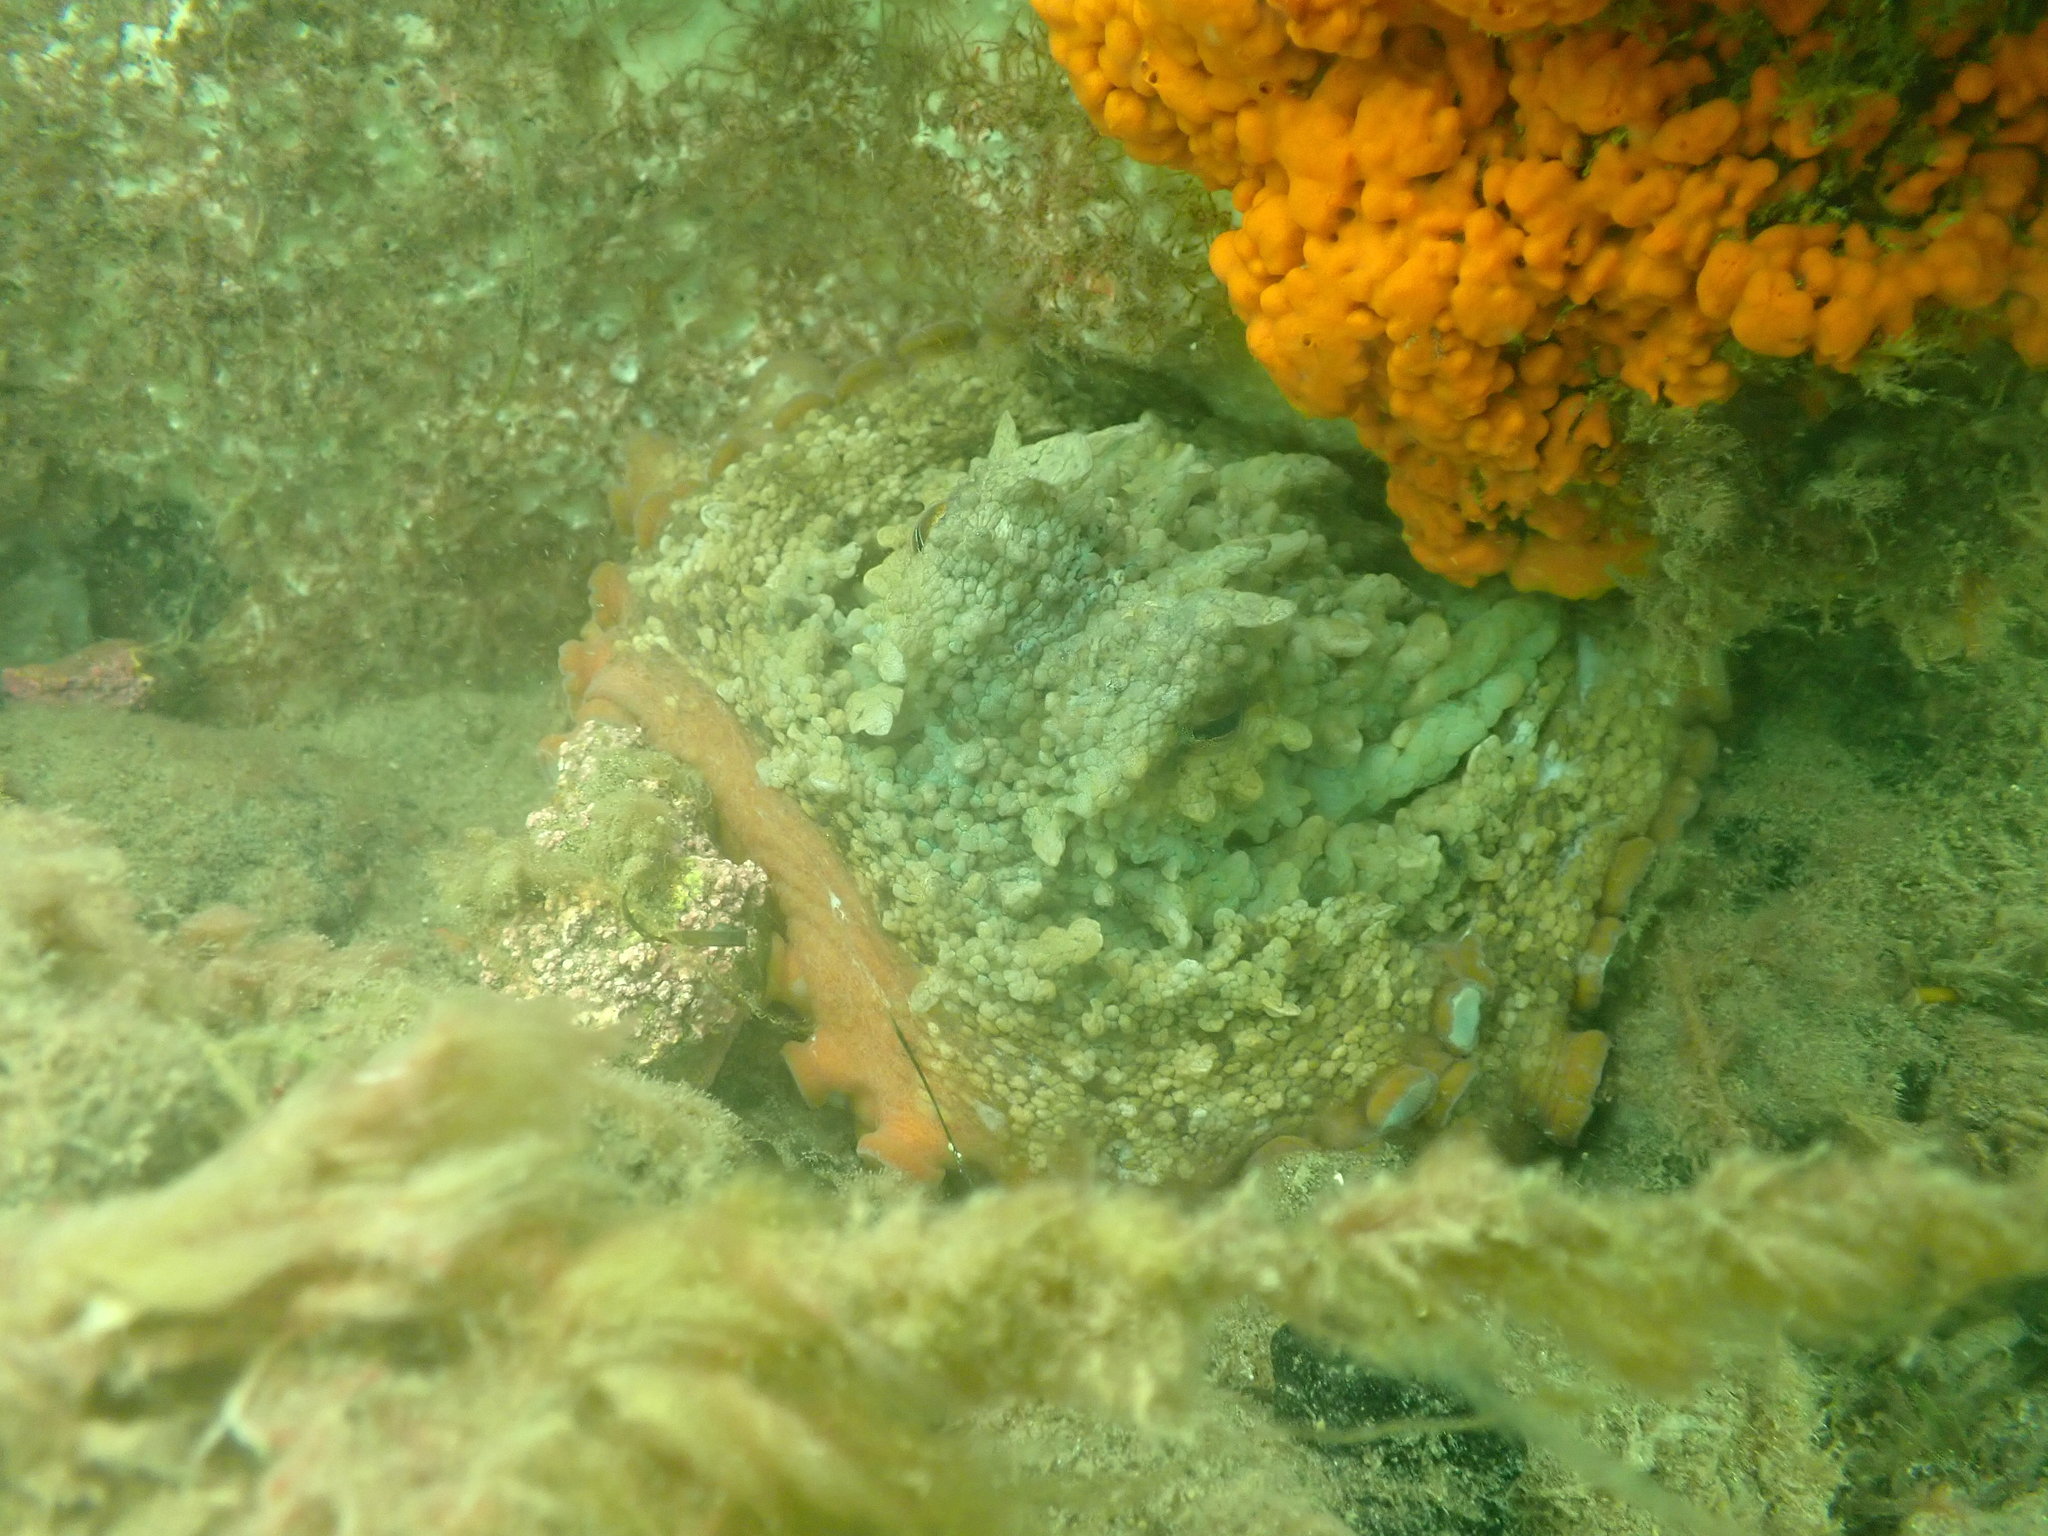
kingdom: Animalia
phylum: Mollusca
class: Cephalopoda
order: Octopoda
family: Octopodidae
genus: Octopus
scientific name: Octopus tetricus
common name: Sydney octopus
